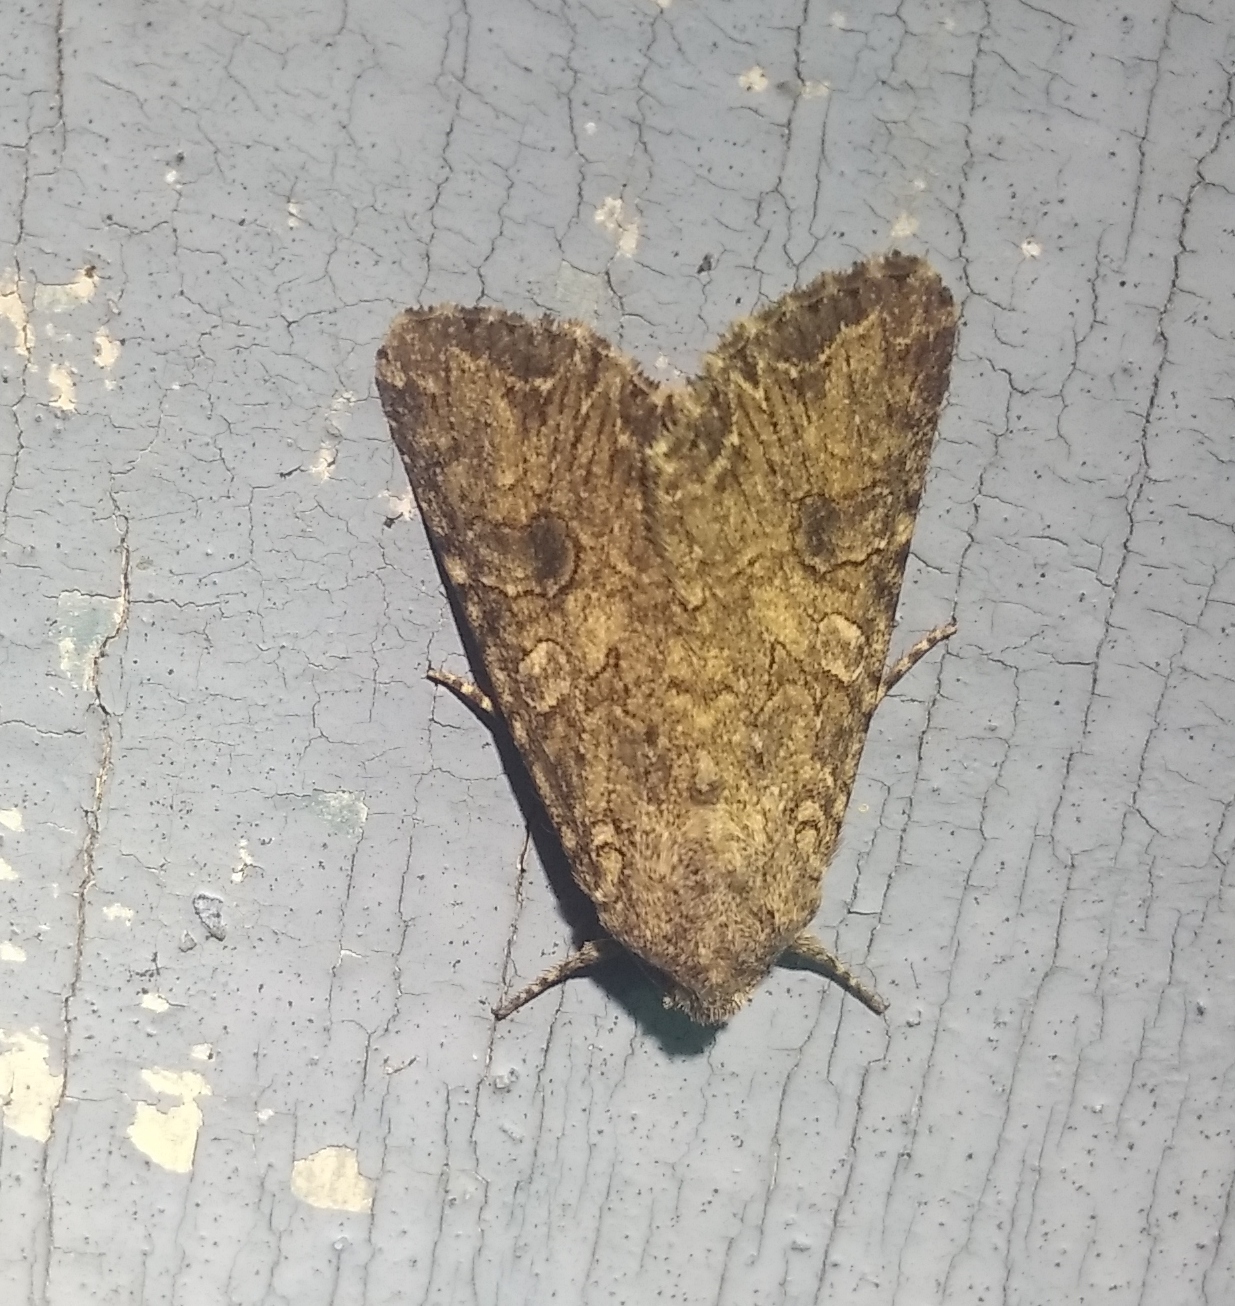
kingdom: Animalia
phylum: Arthropoda
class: Insecta
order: Lepidoptera
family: Noctuidae
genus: Anarta
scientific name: Anarta trifolii
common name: Clover cutworm moth
